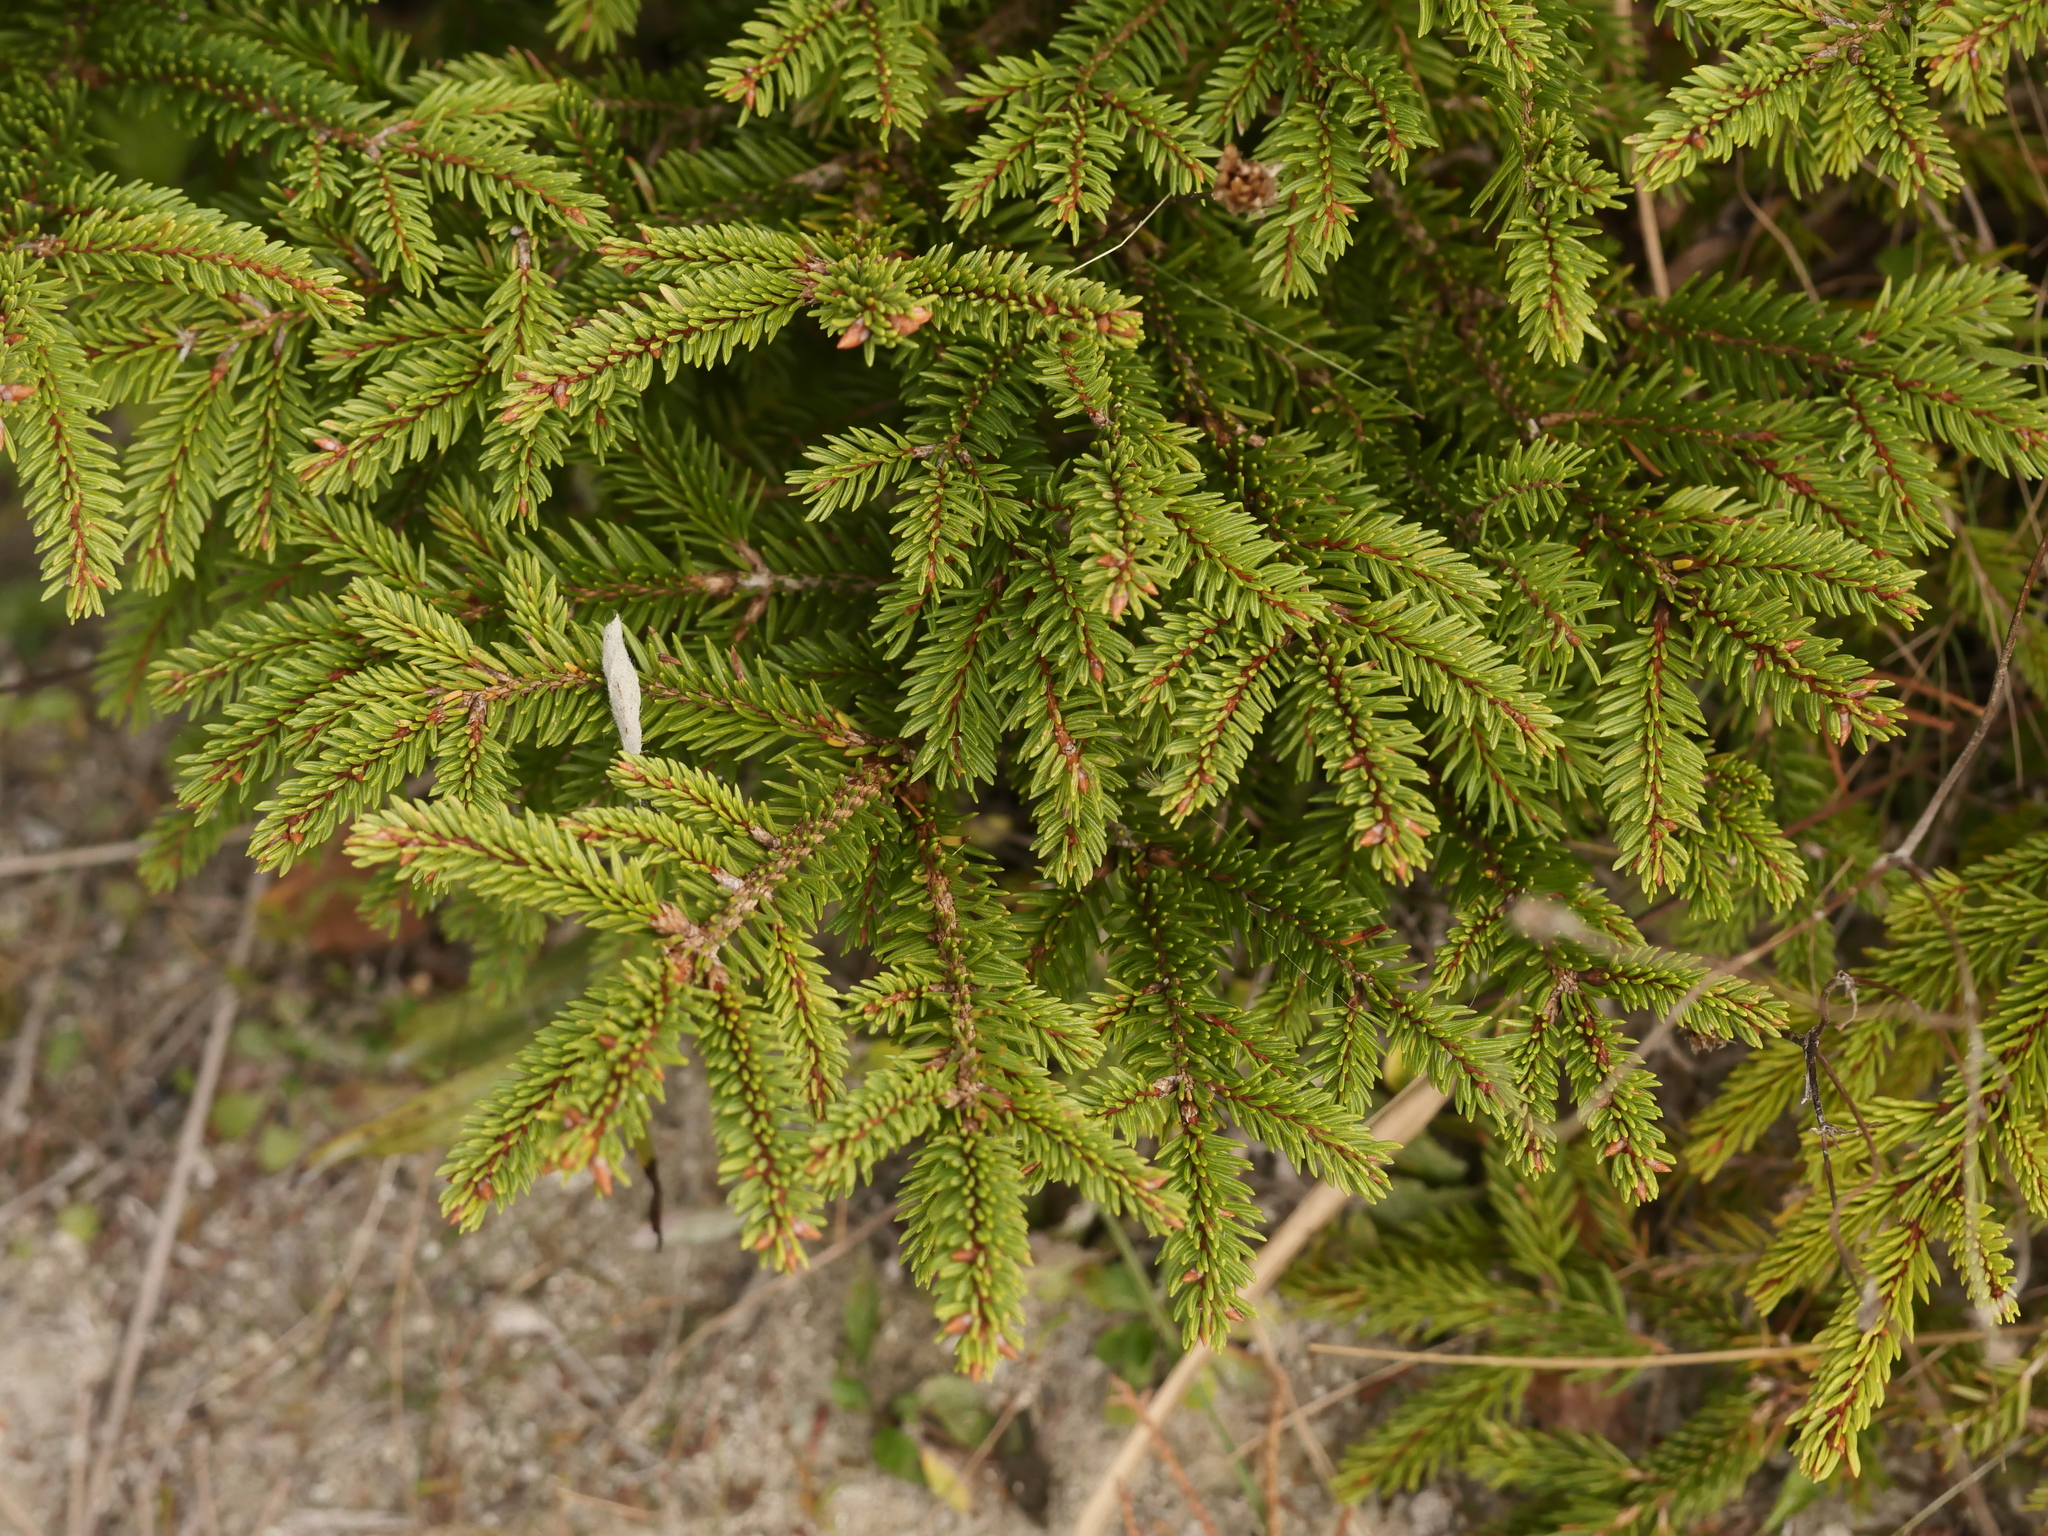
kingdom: Plantae
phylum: Tracheophyta
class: Pinopsida
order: Pinales
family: Pinaceae
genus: Picea
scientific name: Picea abies
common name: Norway spruce
